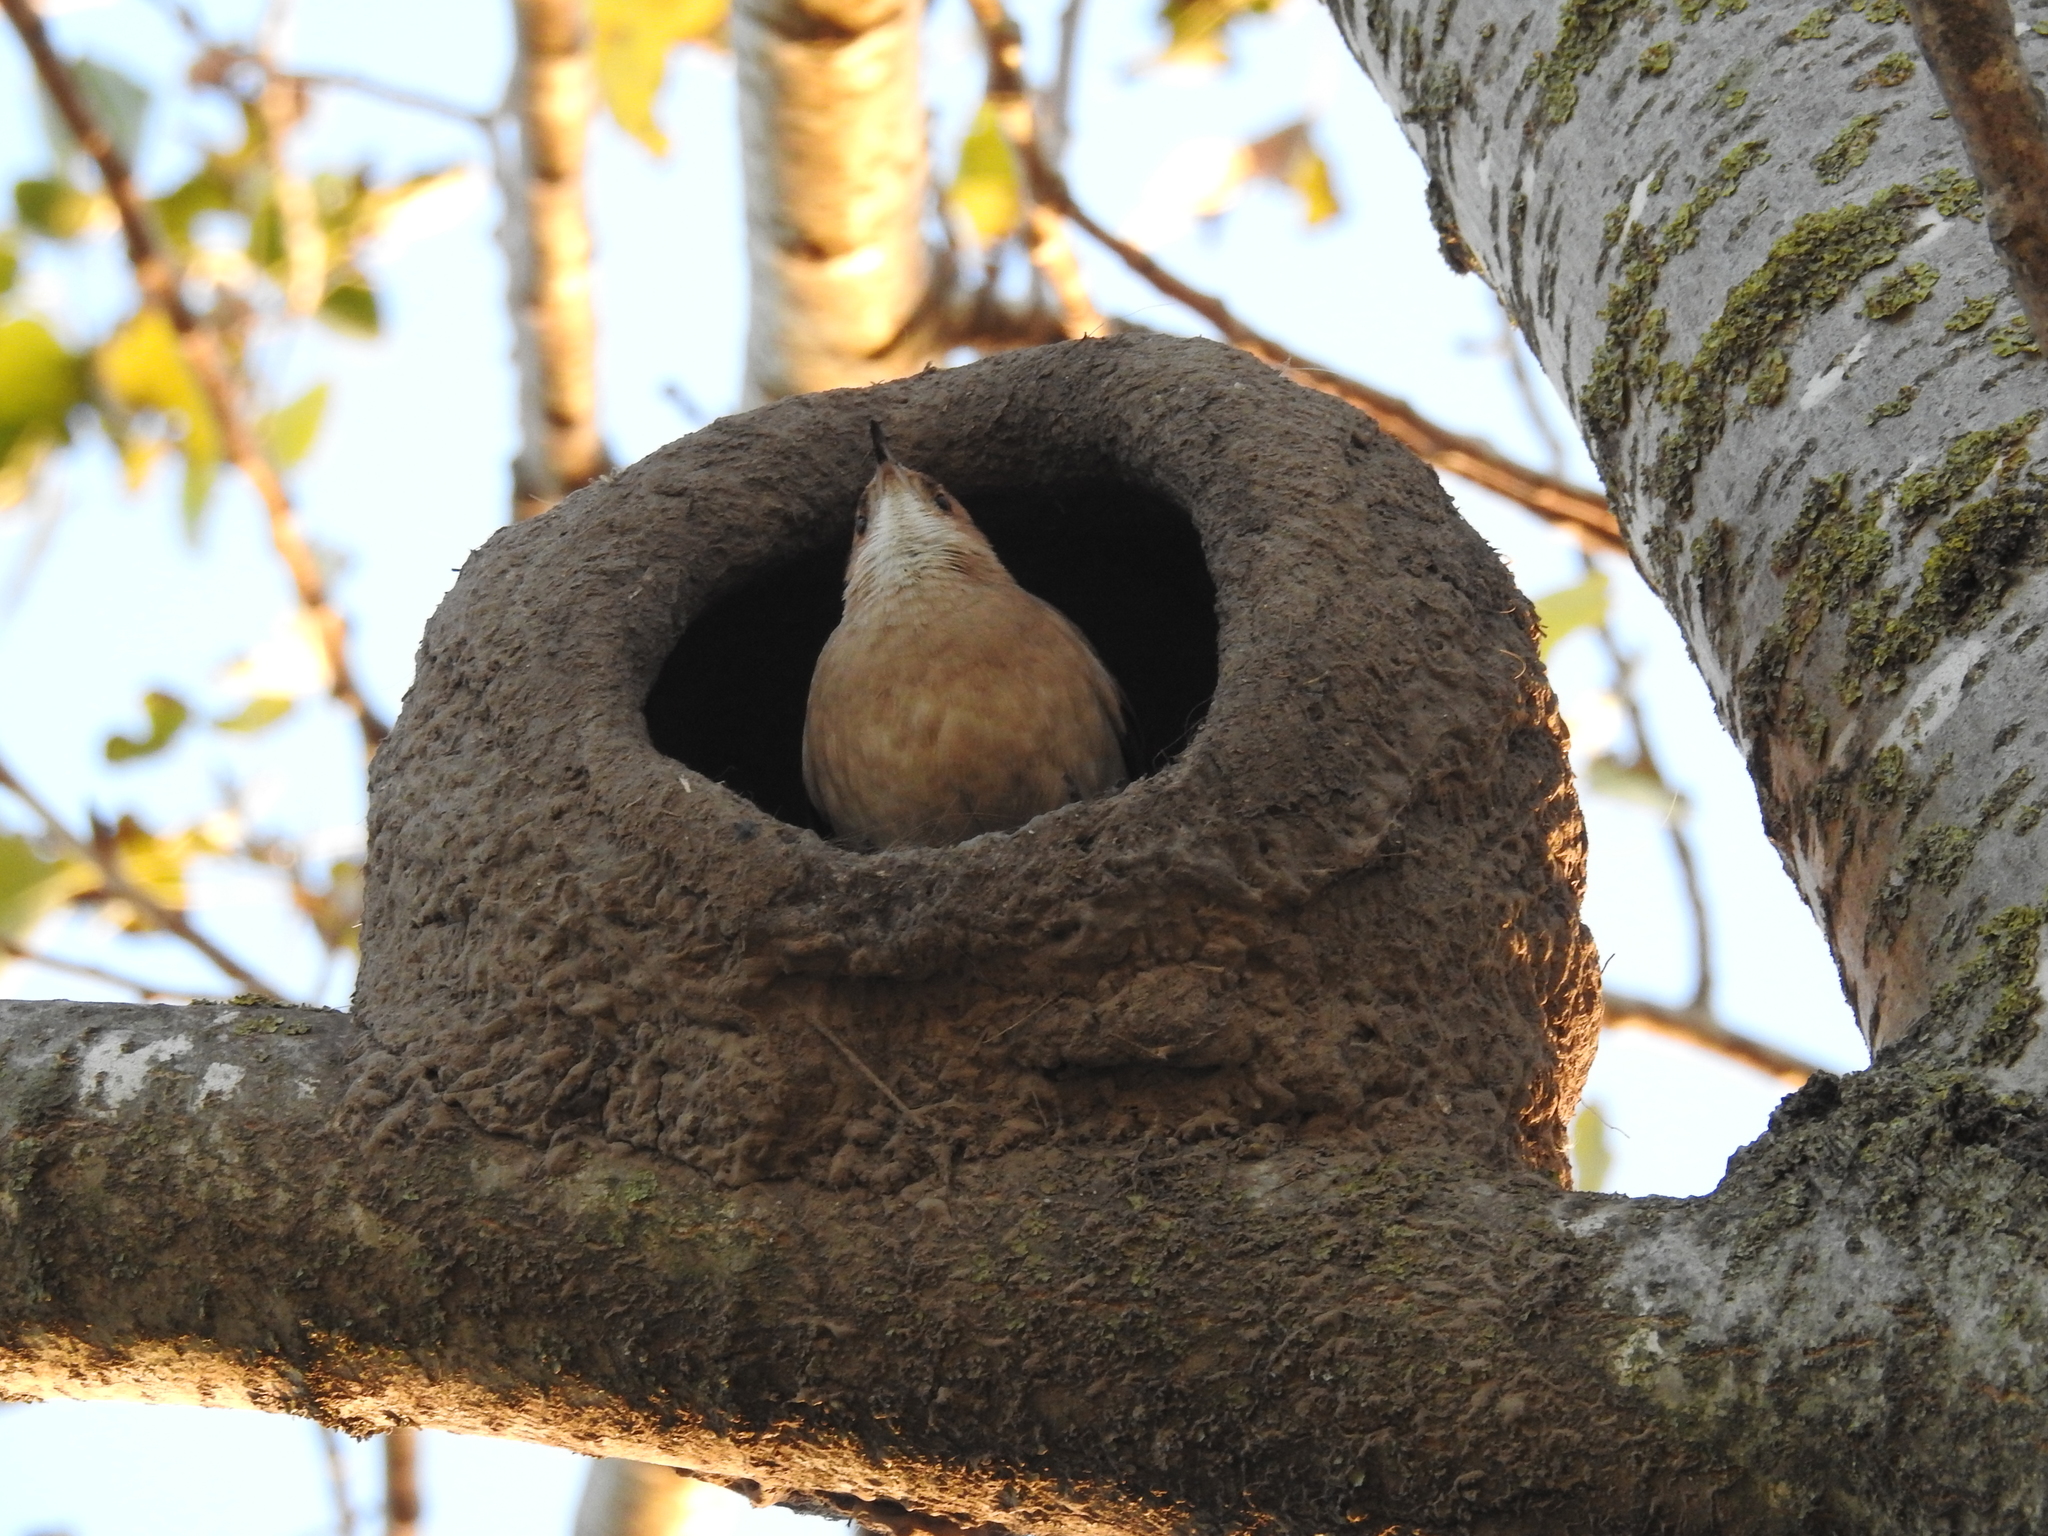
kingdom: Animalia
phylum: Chordata
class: Aves
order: Passeriformes
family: Furnariidae
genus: Furnarius
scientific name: Furnarius rufus
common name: Rufous hornero
